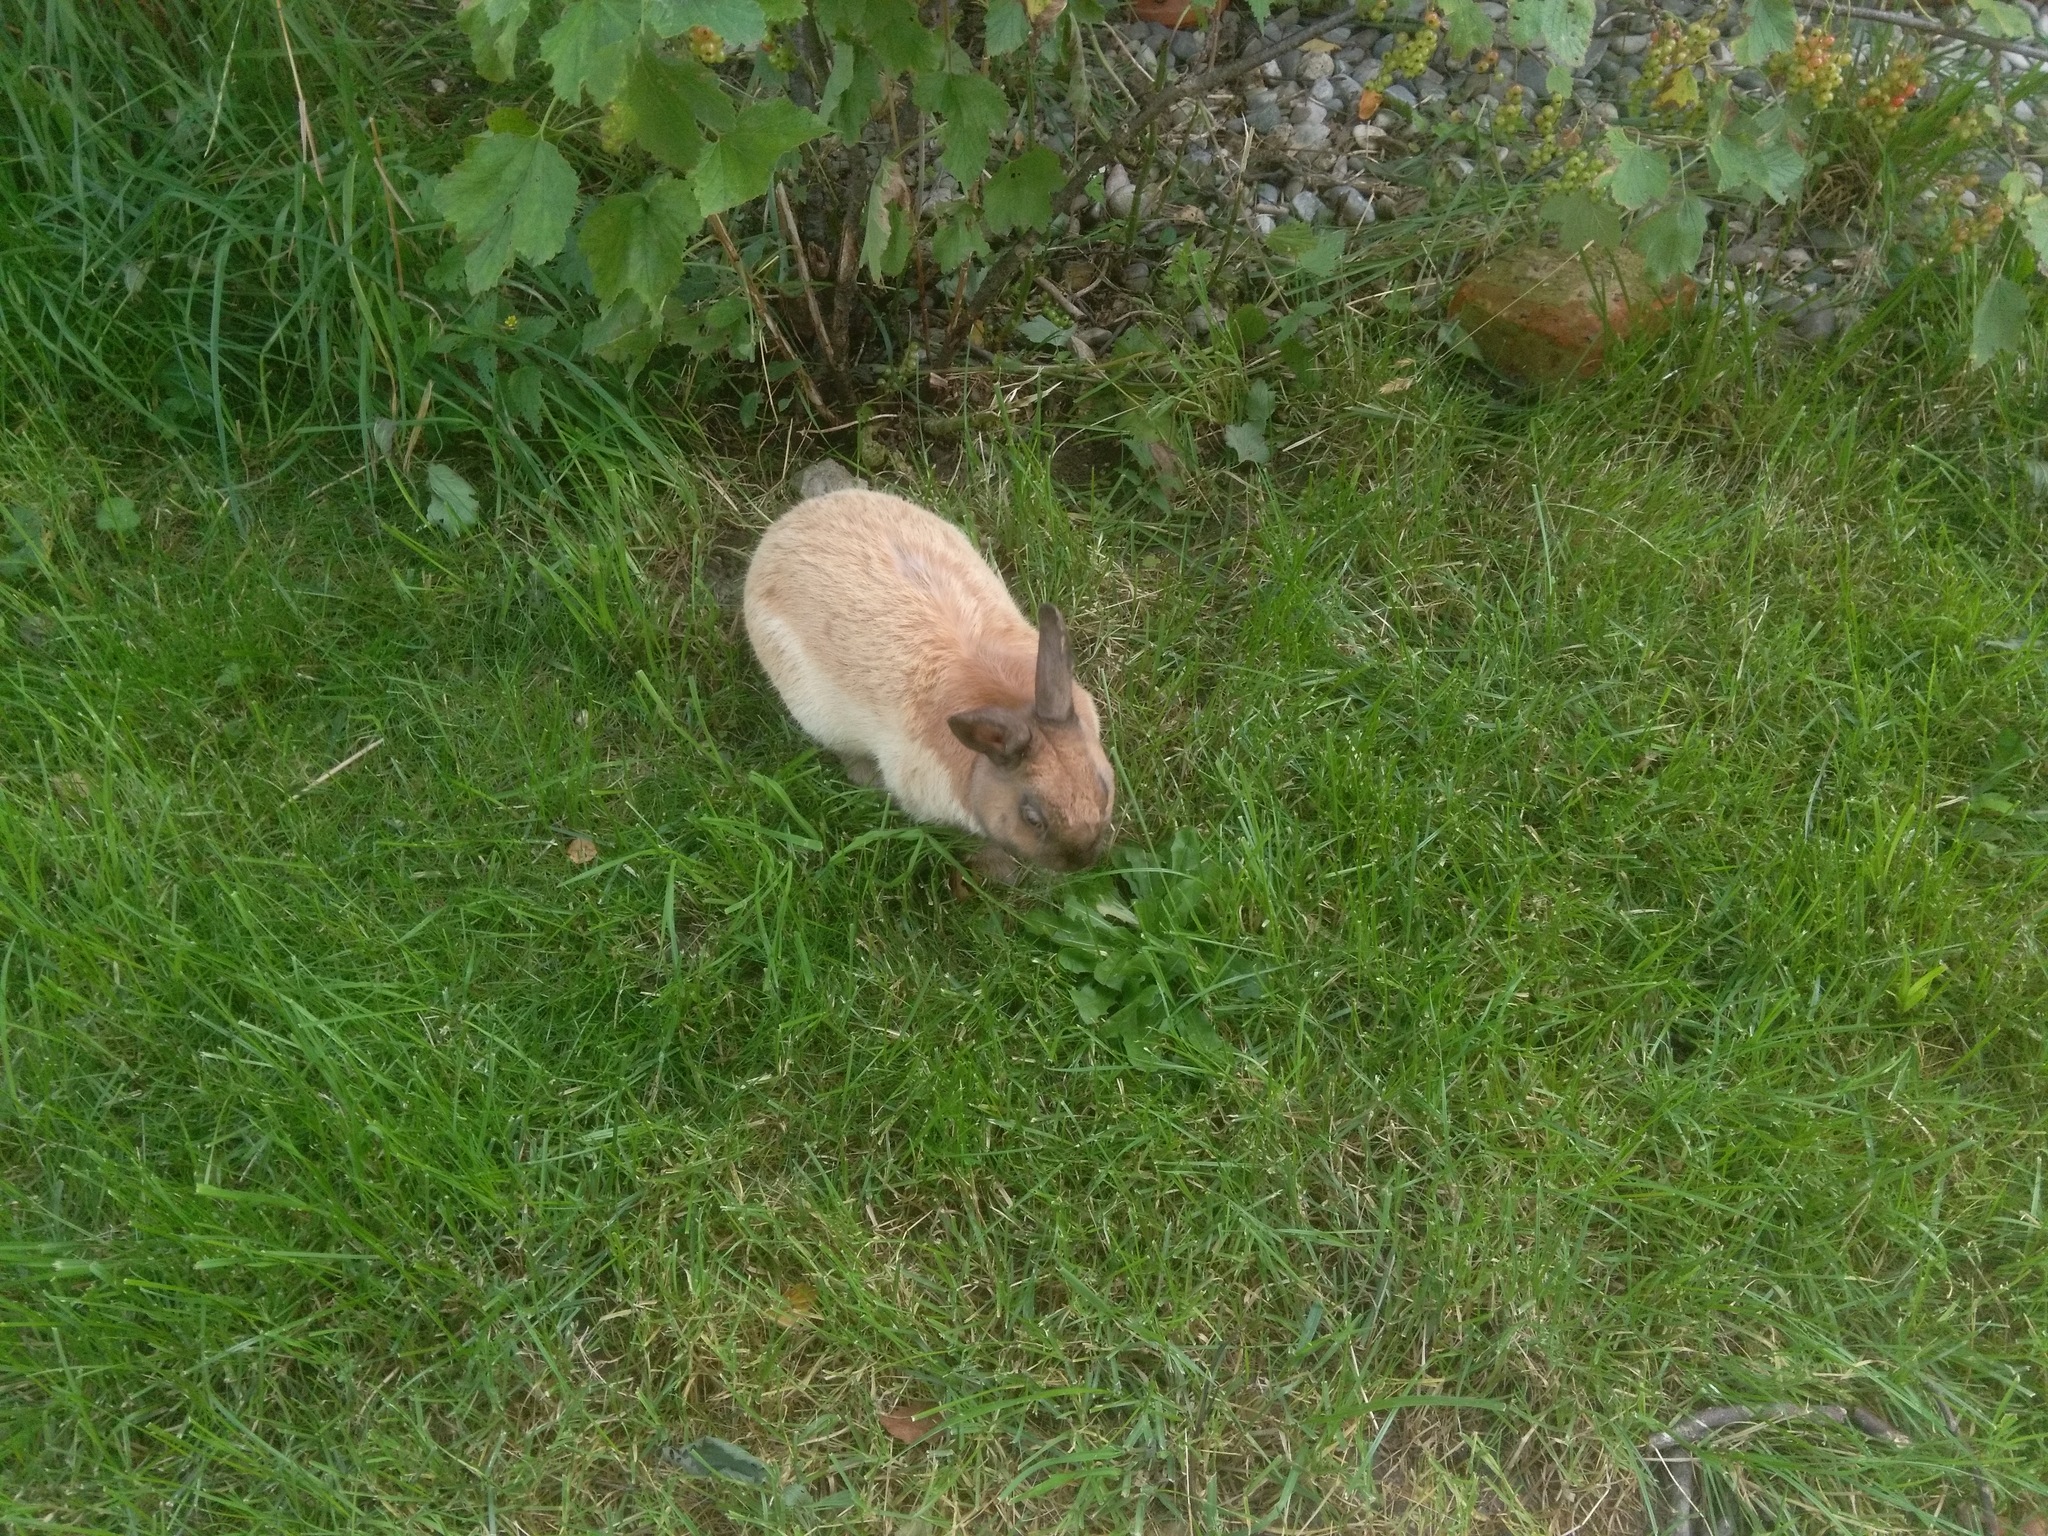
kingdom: Animalia
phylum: Chordata
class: Mammalia
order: Lagomorpha
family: Leporidae
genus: Oryctolagus
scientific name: Oryctolagus cuniculus
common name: European rabbit
